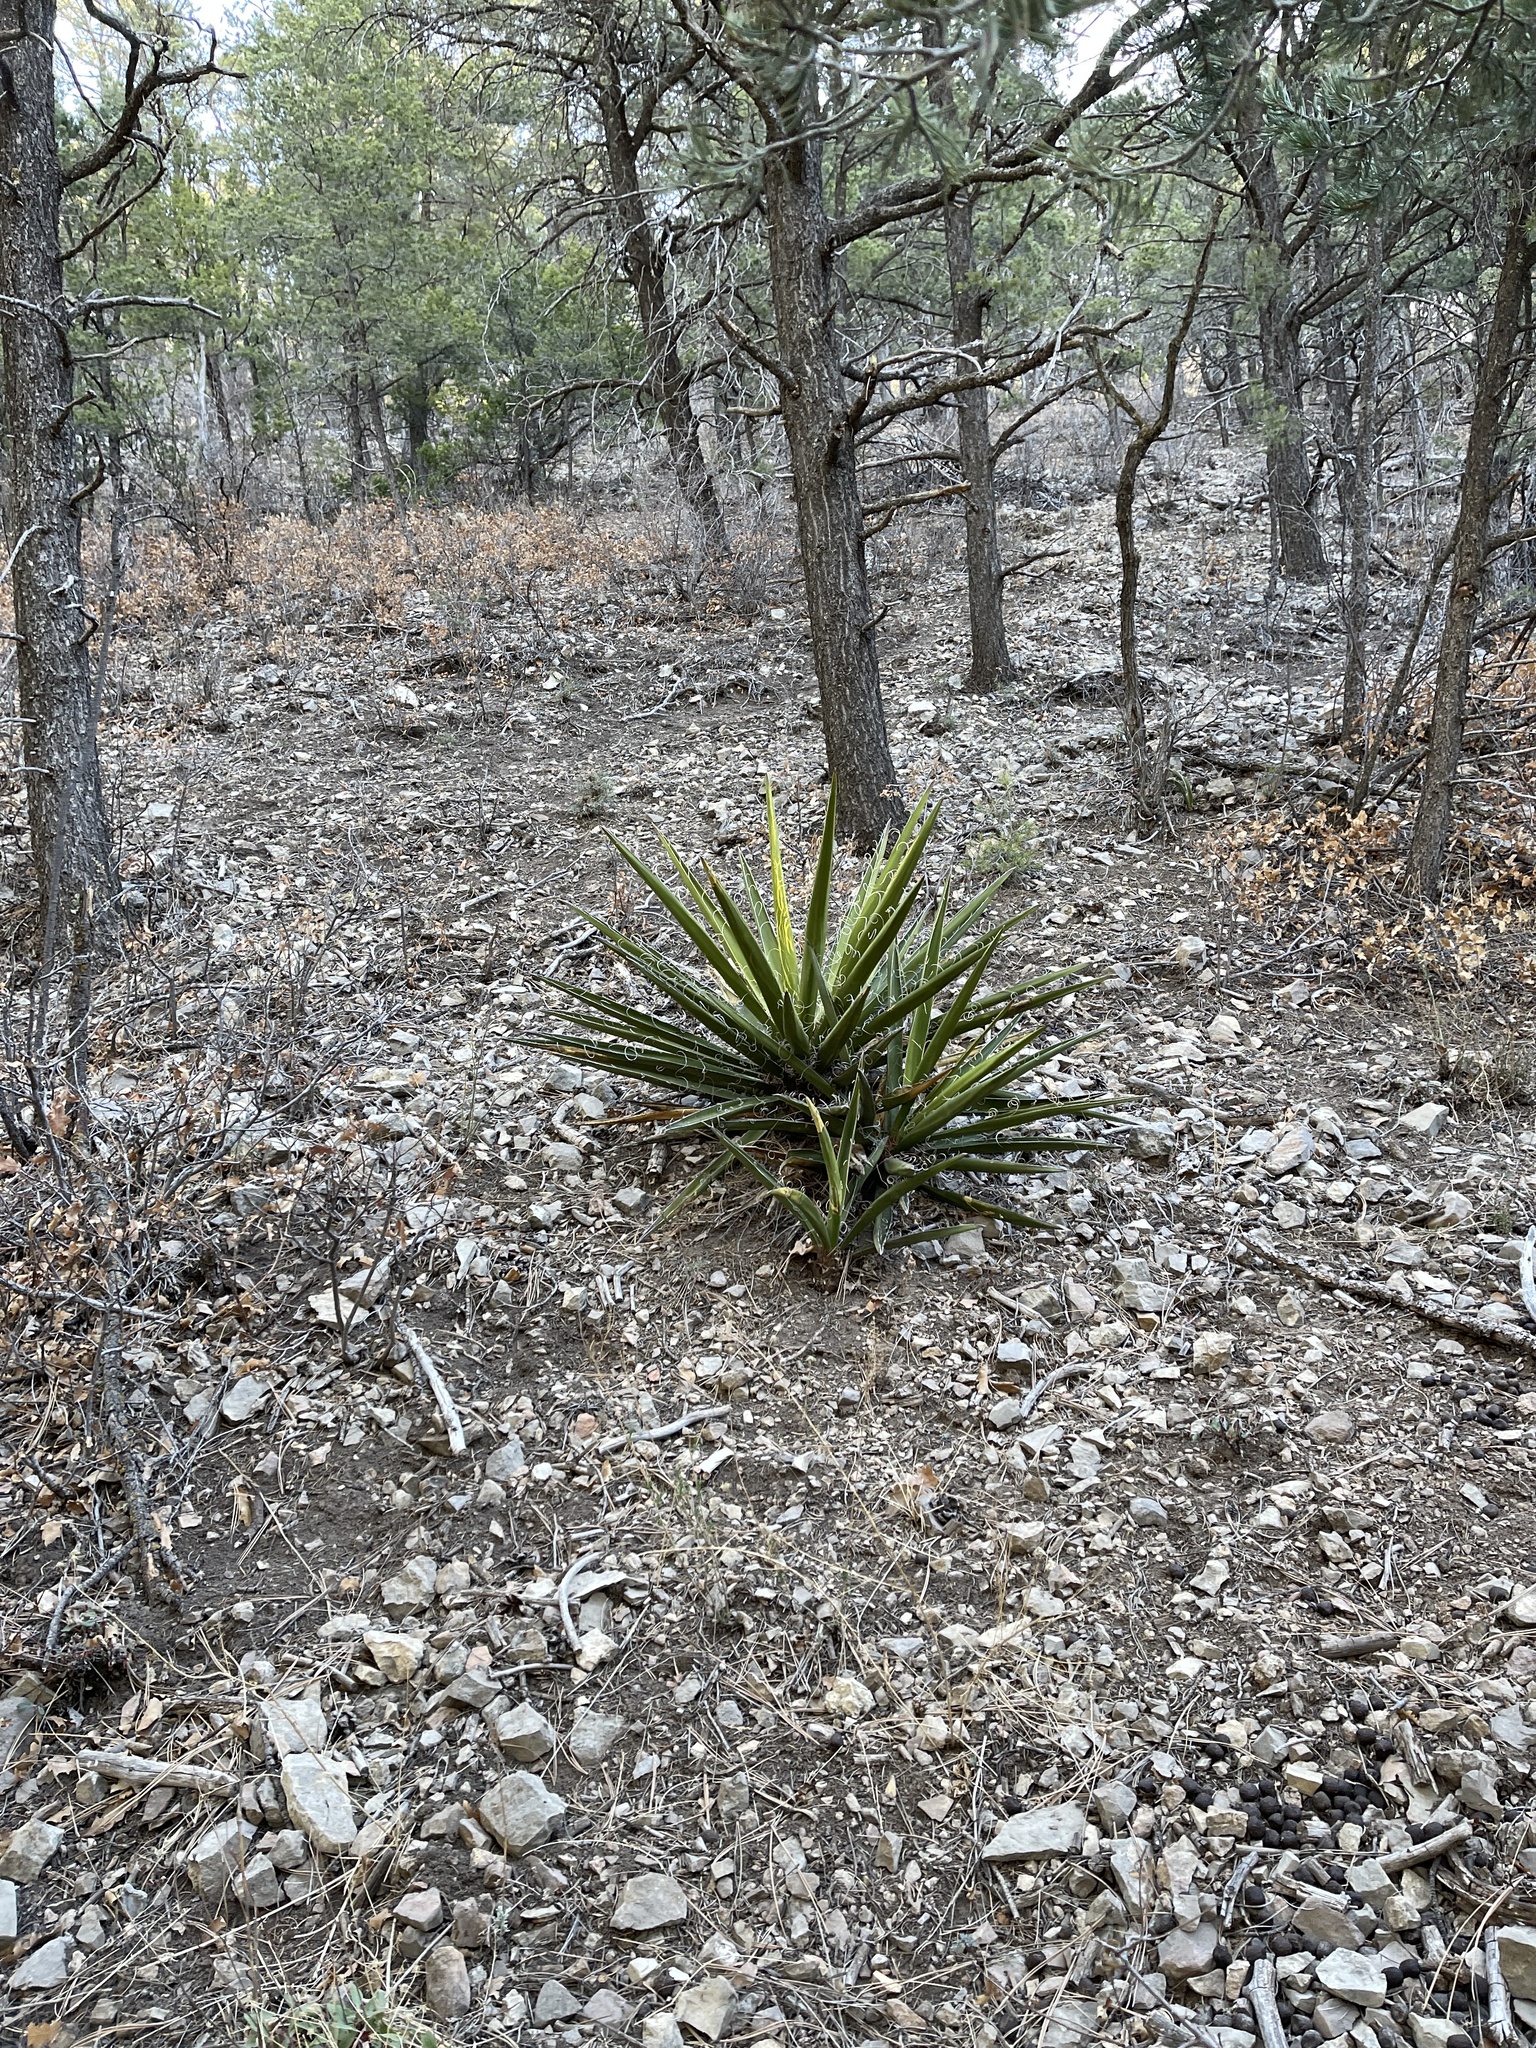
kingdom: Plantae
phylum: Tracheophyta
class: Liliopsida
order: Asparagales
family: Asparagaceae
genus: Yucca
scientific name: Yucca baccata
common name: Banana yucca
